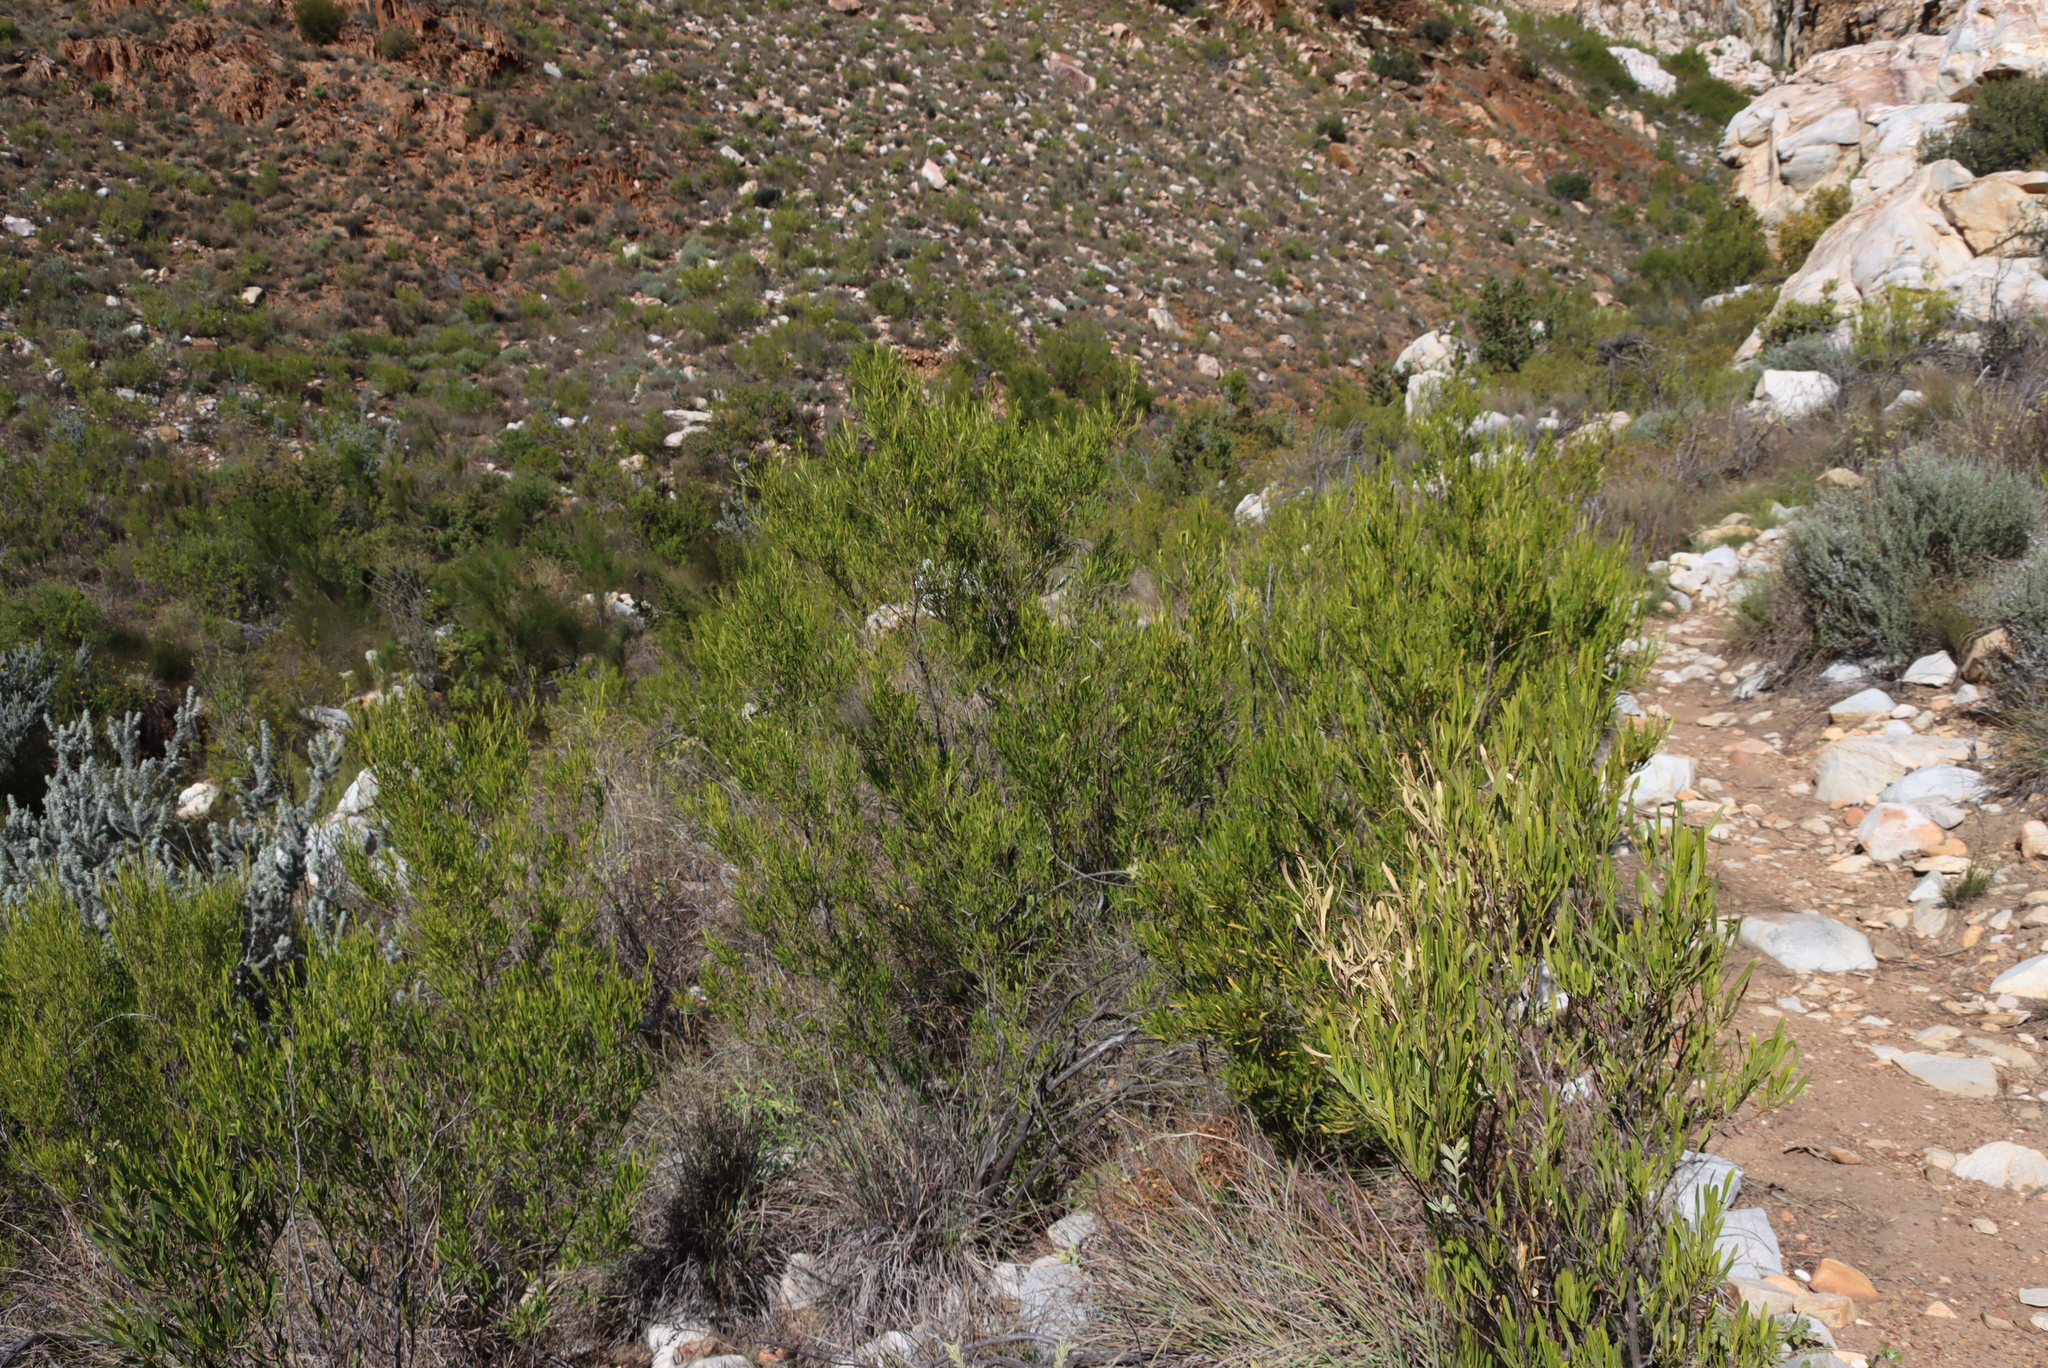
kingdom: Plantae
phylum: Tracheophyta
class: Magnoliopsida
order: Sapindales
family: Sapindaceae
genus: Dodonaea
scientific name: Dodonaea viscosa
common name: Hopbush
